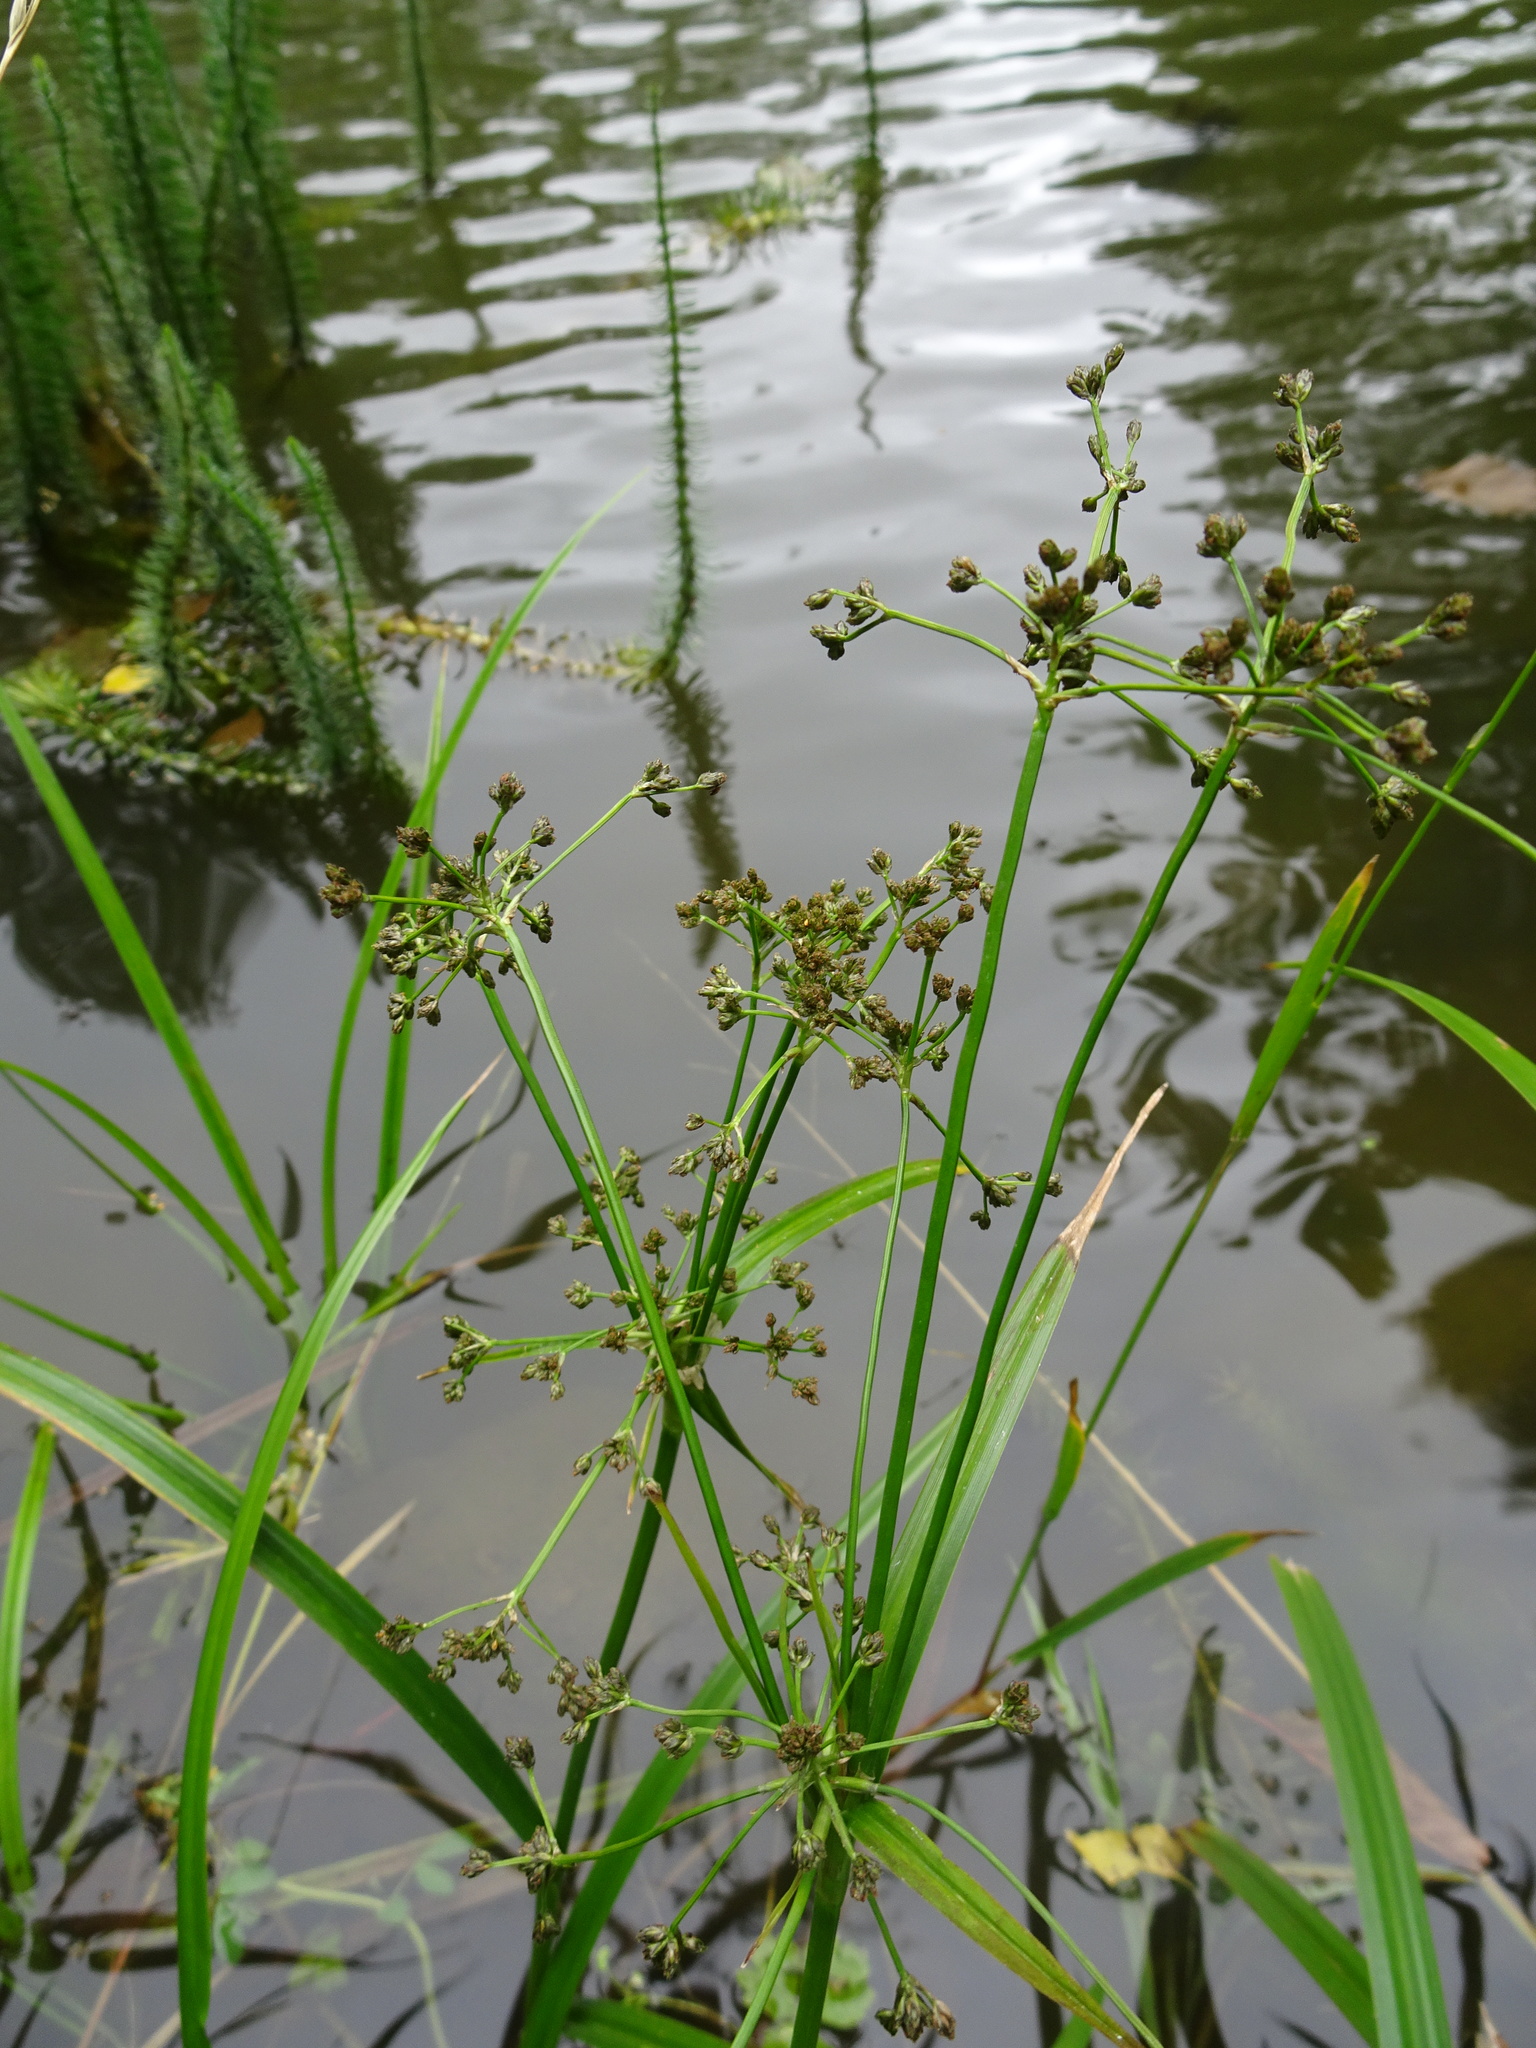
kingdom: Plantae
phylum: Tracheophyta
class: Liliopsida
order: Poales
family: Cyperaceae
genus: Scirpus
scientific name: Scirpus sylvaticus
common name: Wood club-rush
